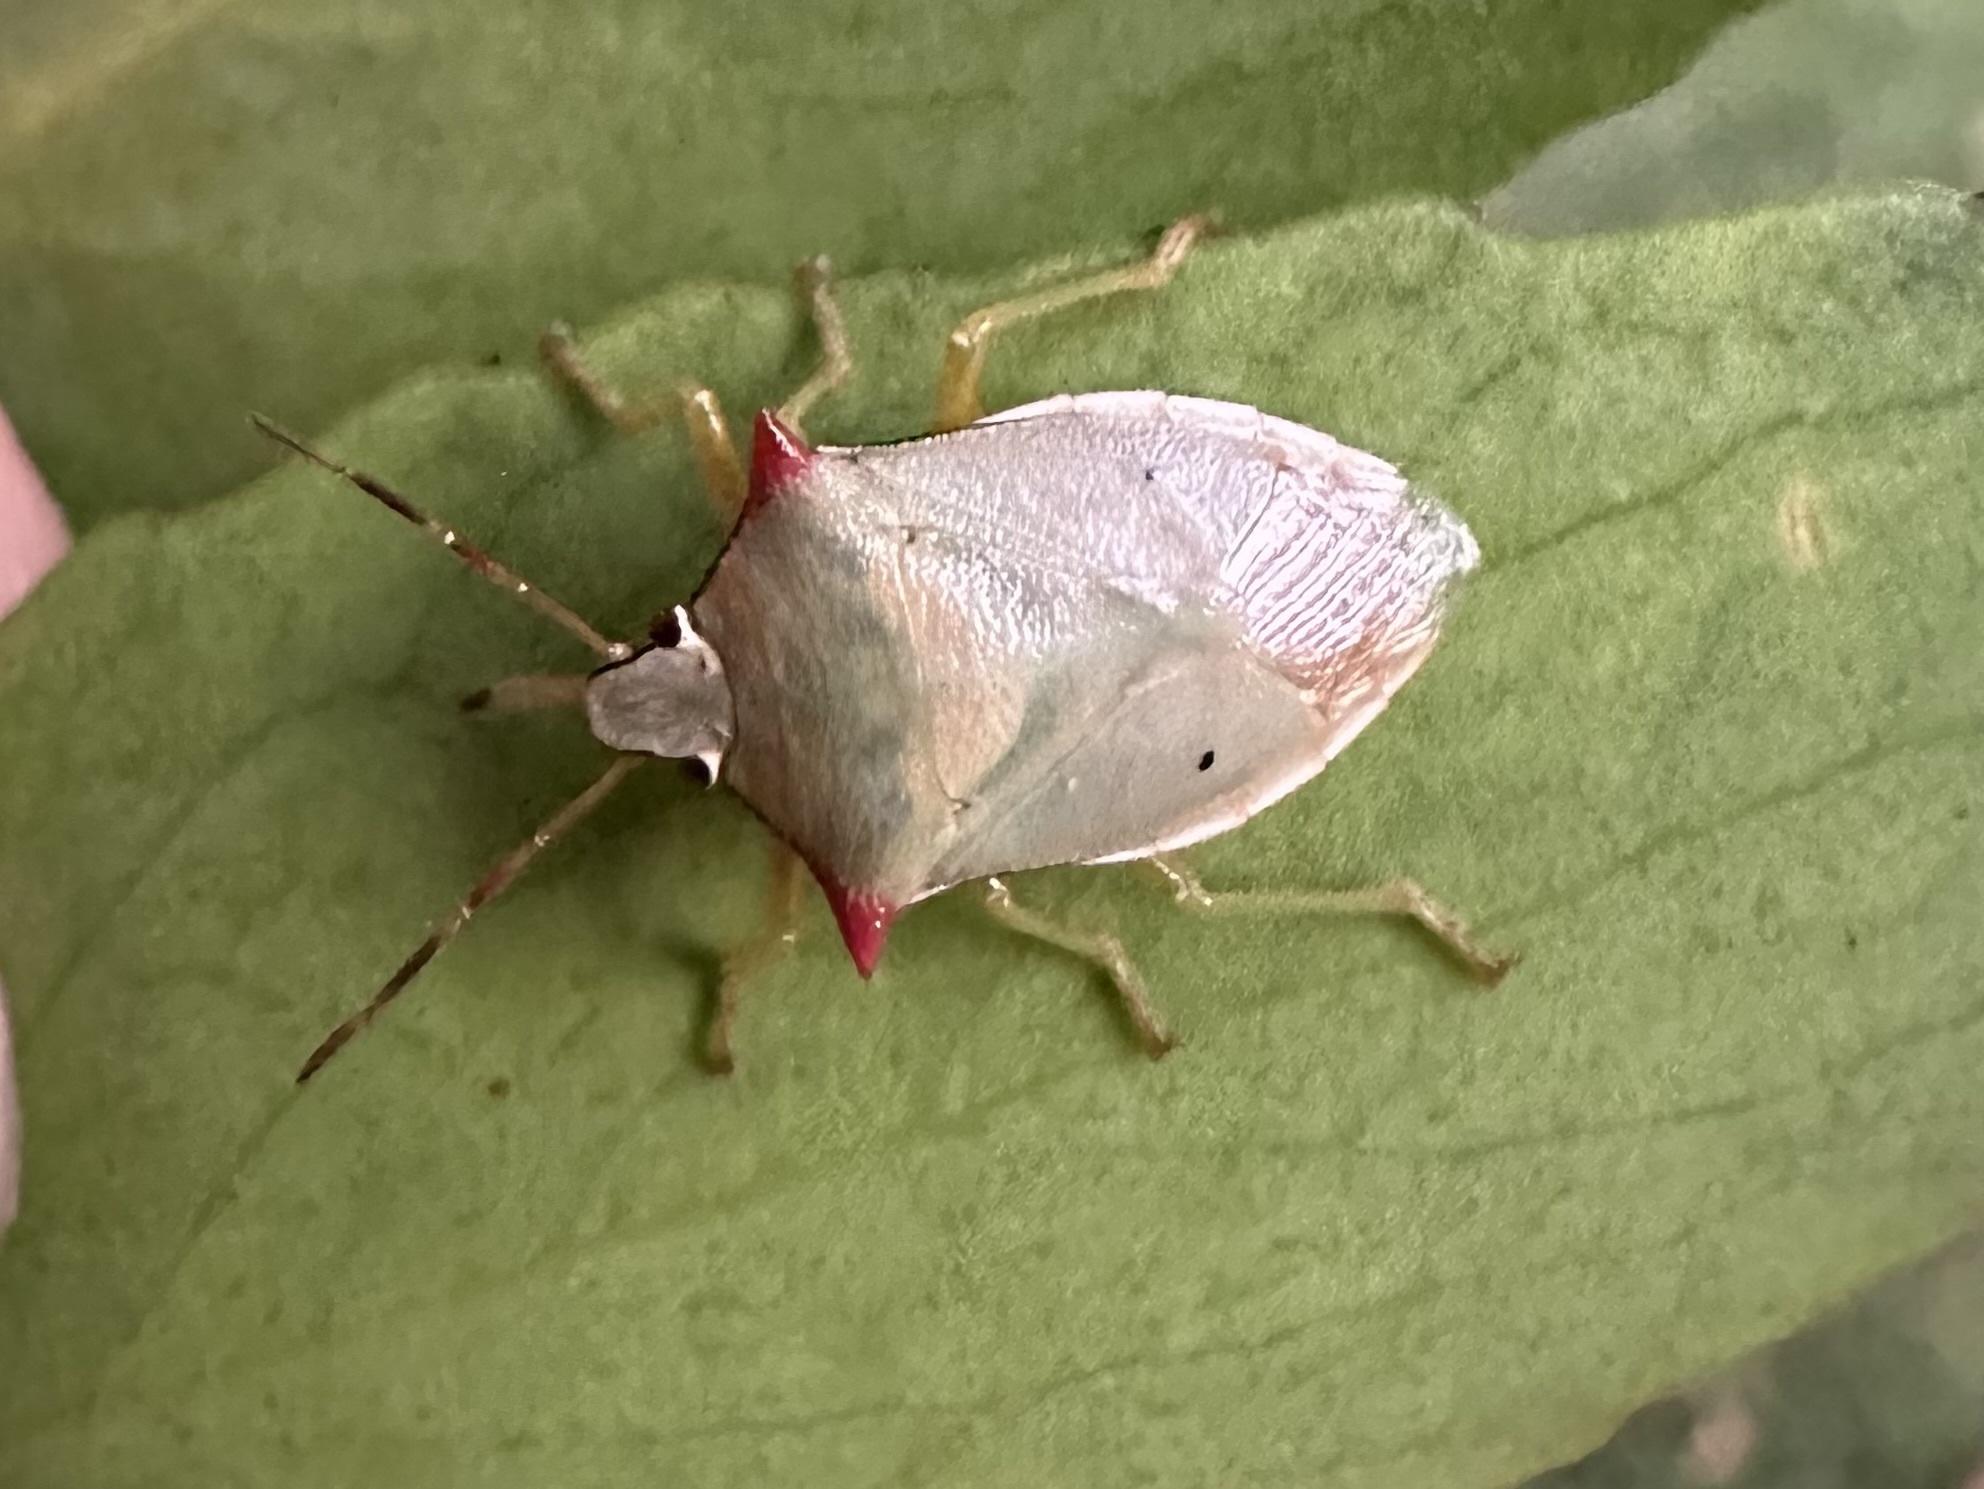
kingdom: Animalia
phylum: Arthropoda
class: Insecta
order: Hemiptera
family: Pentatomidae
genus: Brontocoris
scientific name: Brontocoris
